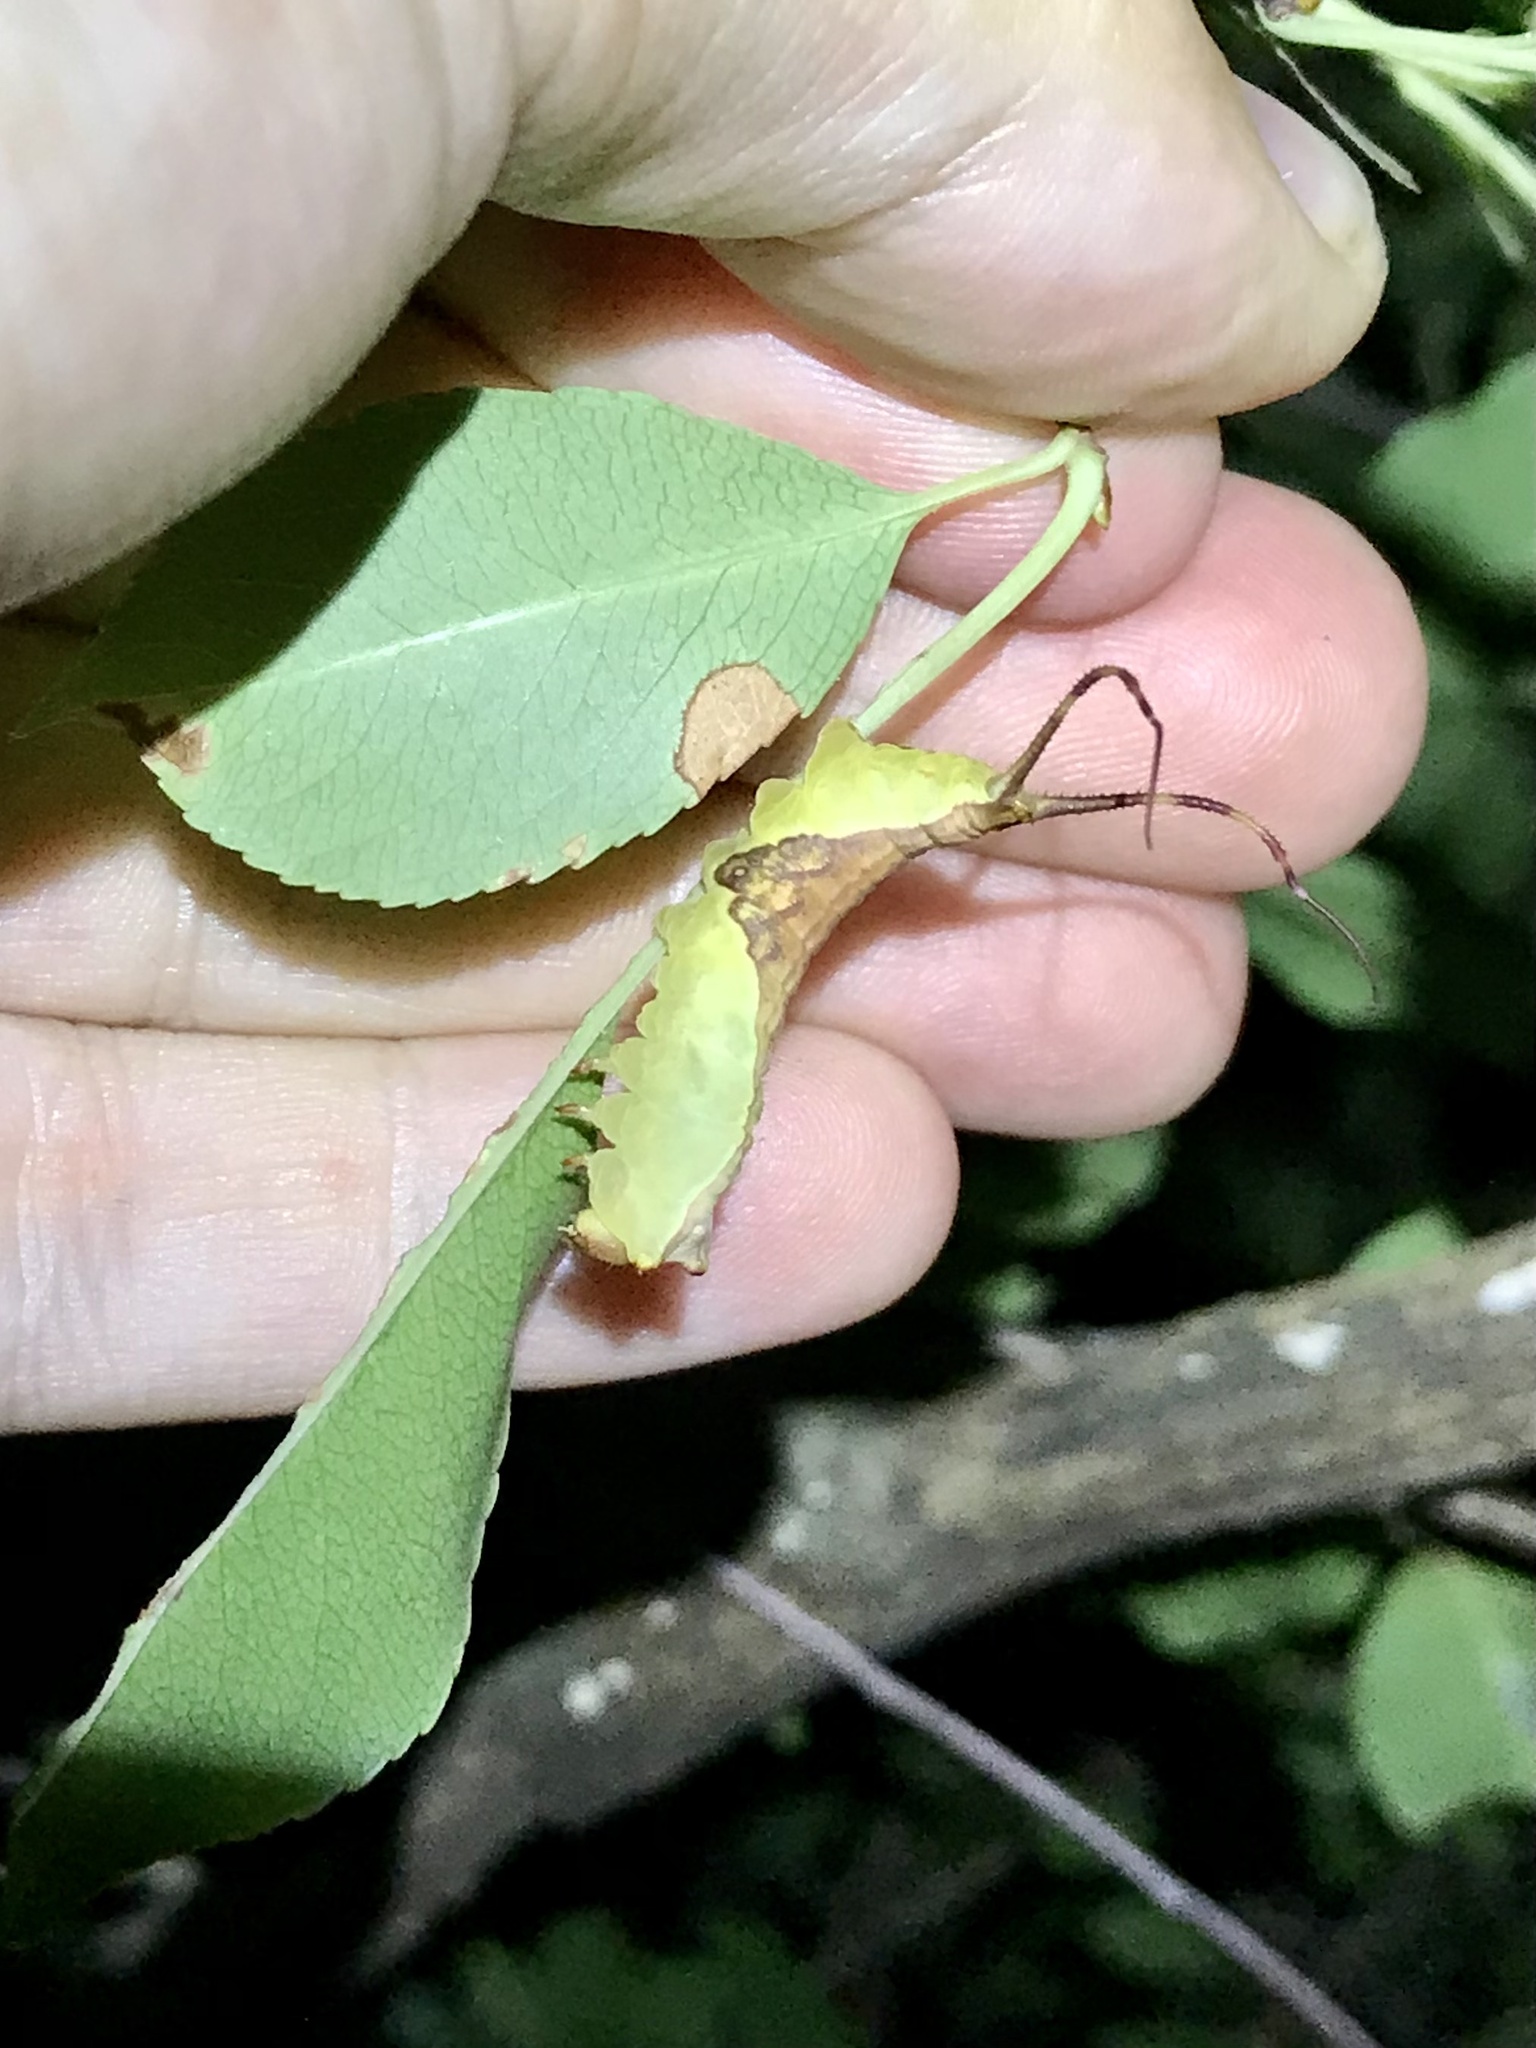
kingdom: Animalia
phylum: Arthropoda
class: Insecta
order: Lepidoptera
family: Notodontidae
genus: Furcula
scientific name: Furcula borealis
